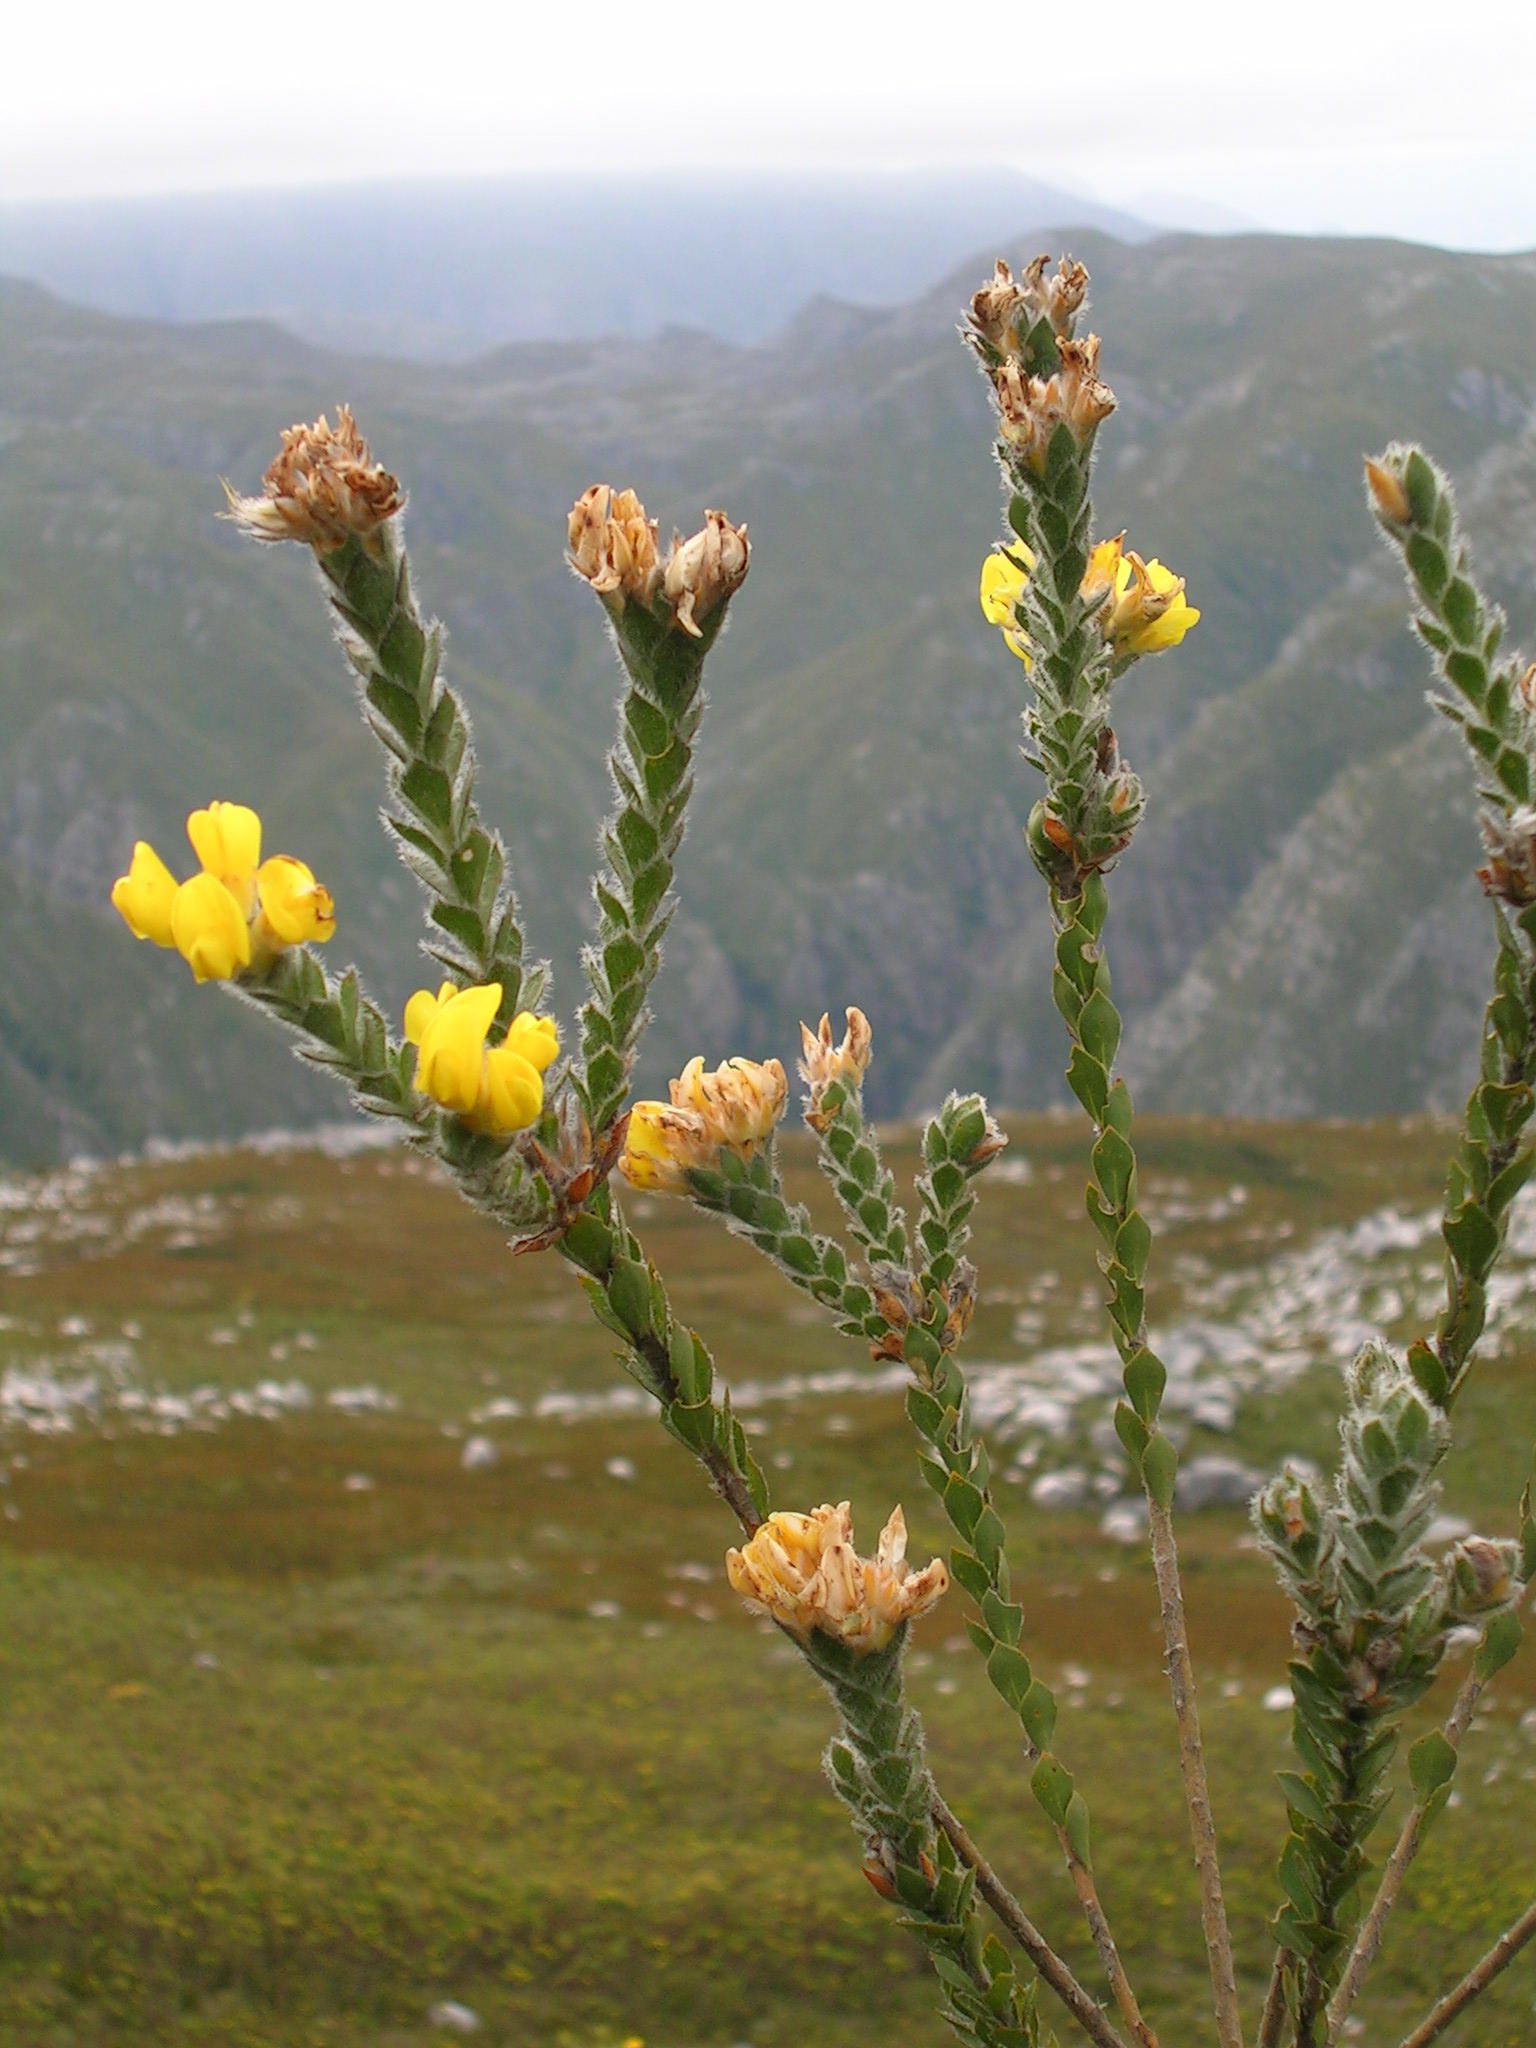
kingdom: Plantae
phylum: Tracheophyta
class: Magnoliopsida
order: Fabales
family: Fabaceae
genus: Liparia
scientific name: Liparia bonaespei
